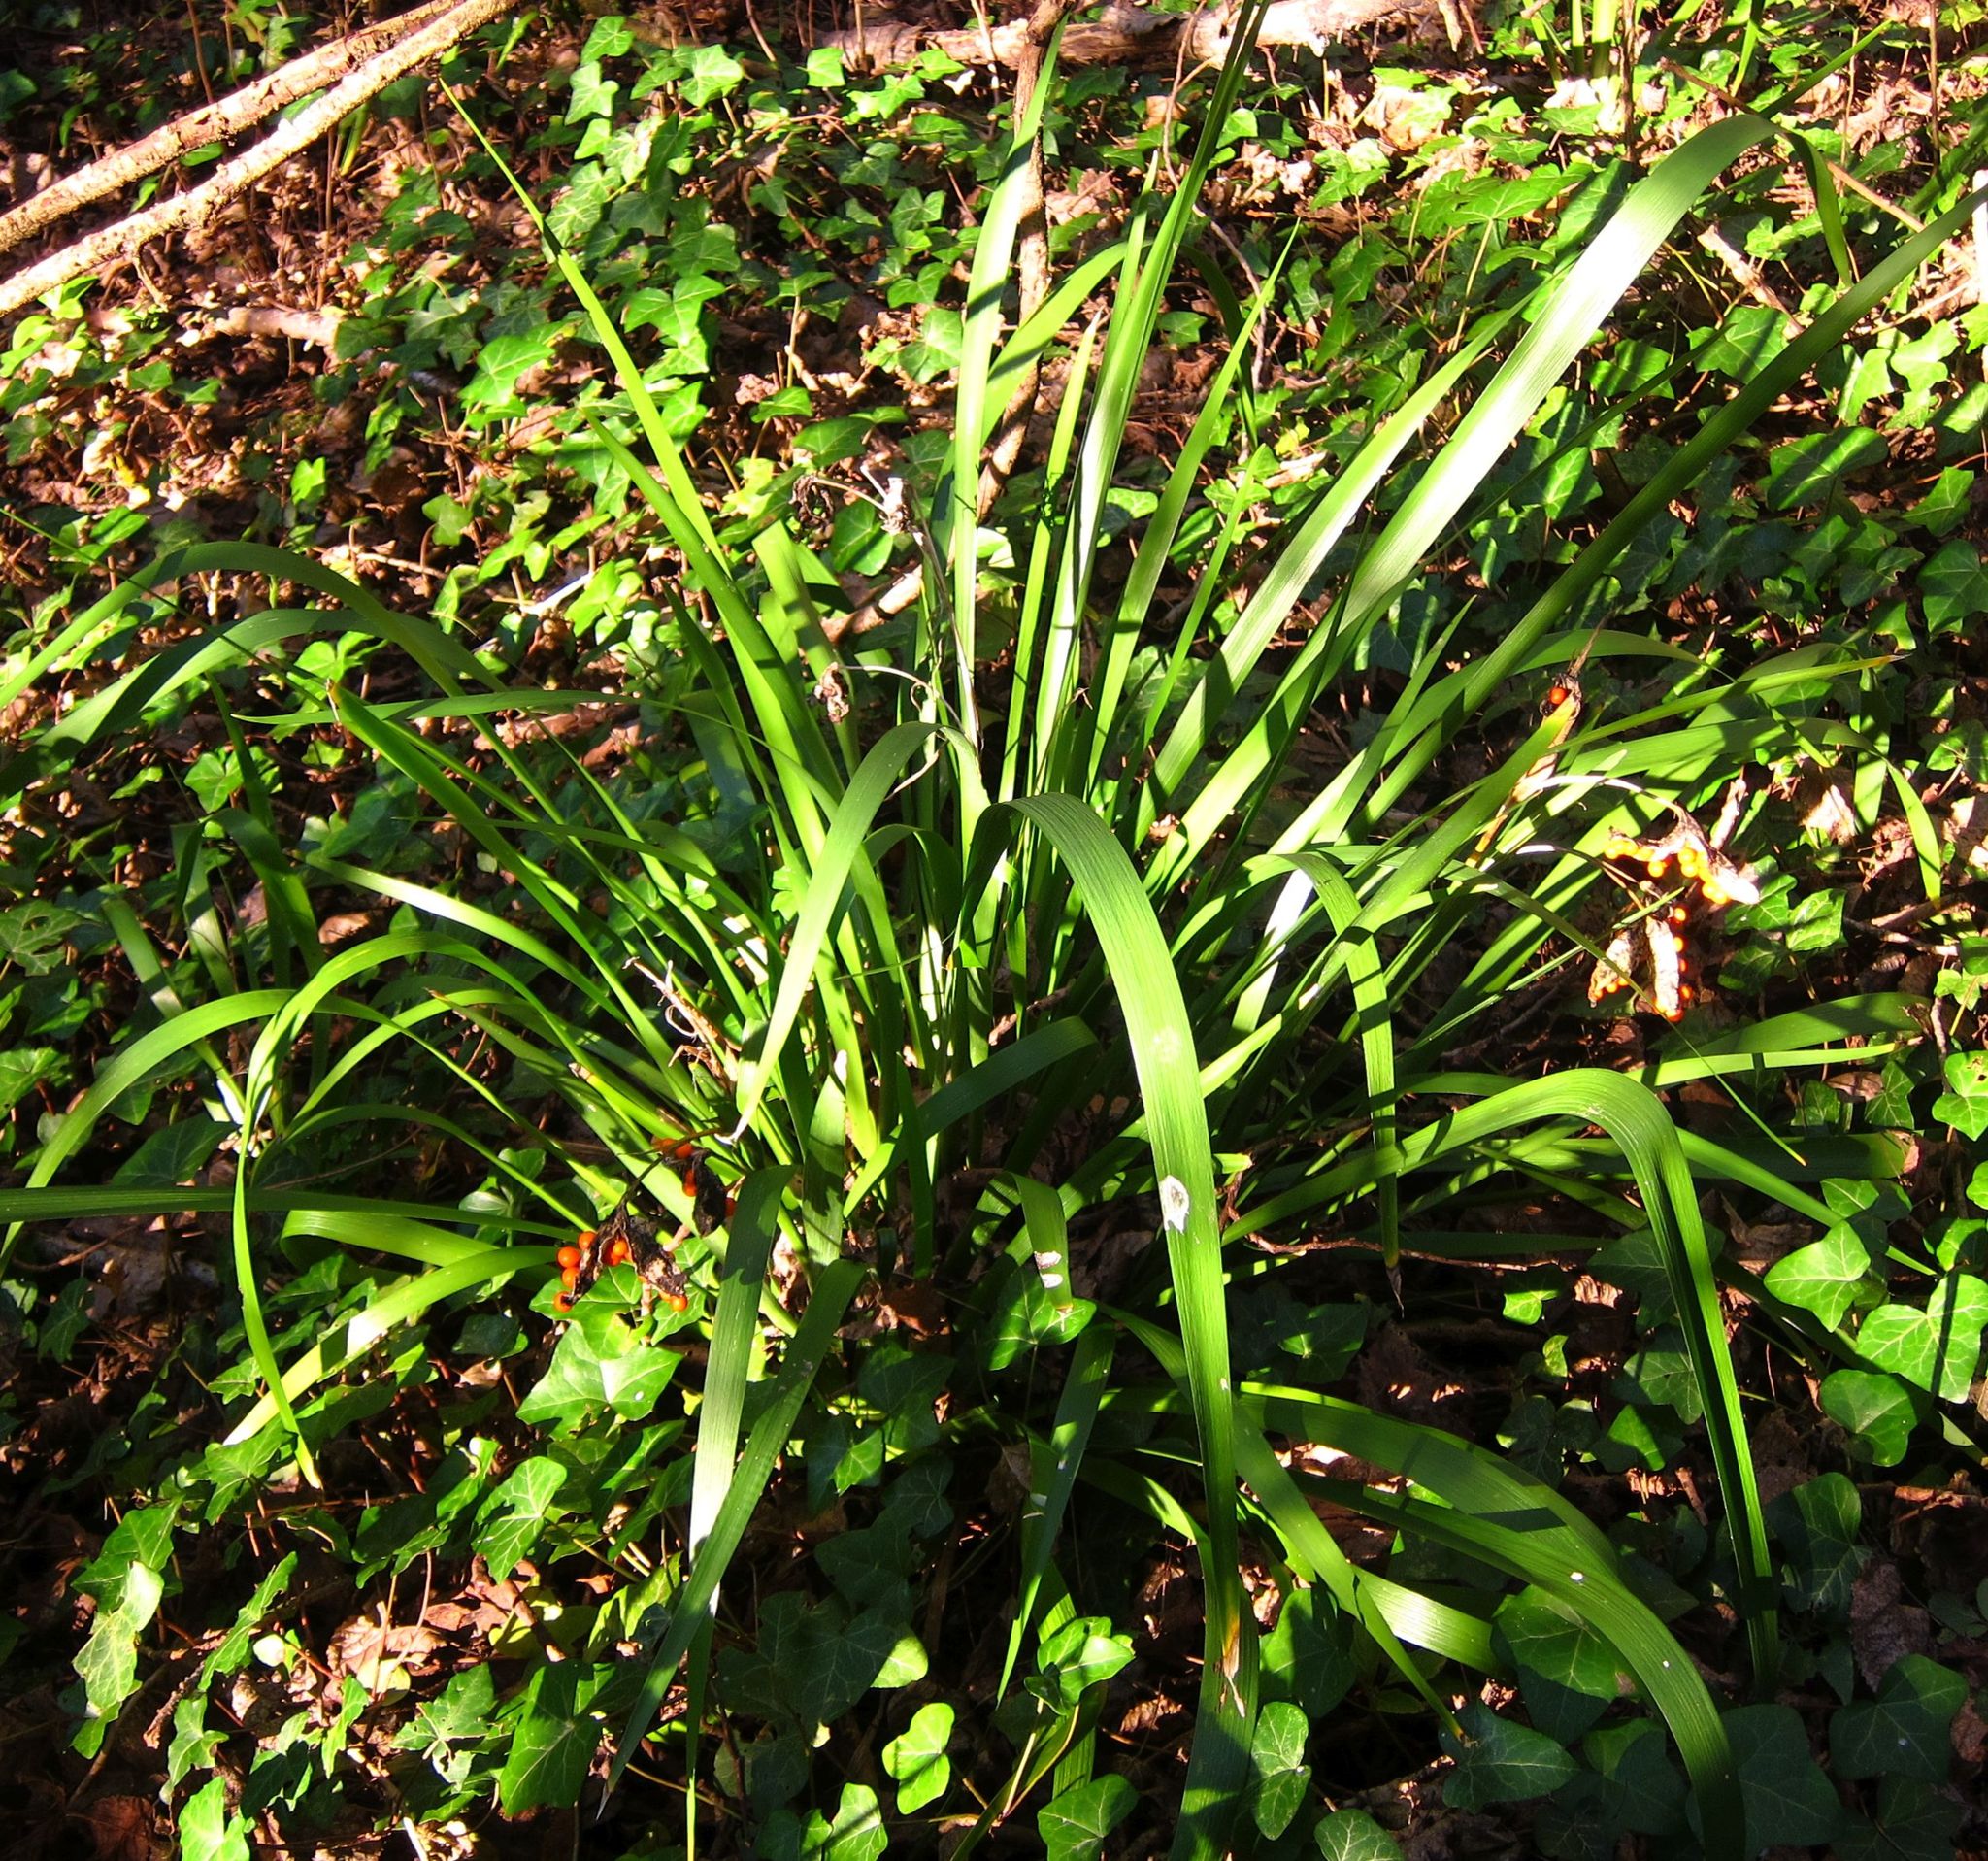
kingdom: Plantae
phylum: Tracheophyta
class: Liliopsida
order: Asparagales
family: Iridaceae
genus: Iris
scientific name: Iris foetidissima
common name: Stinking iris
